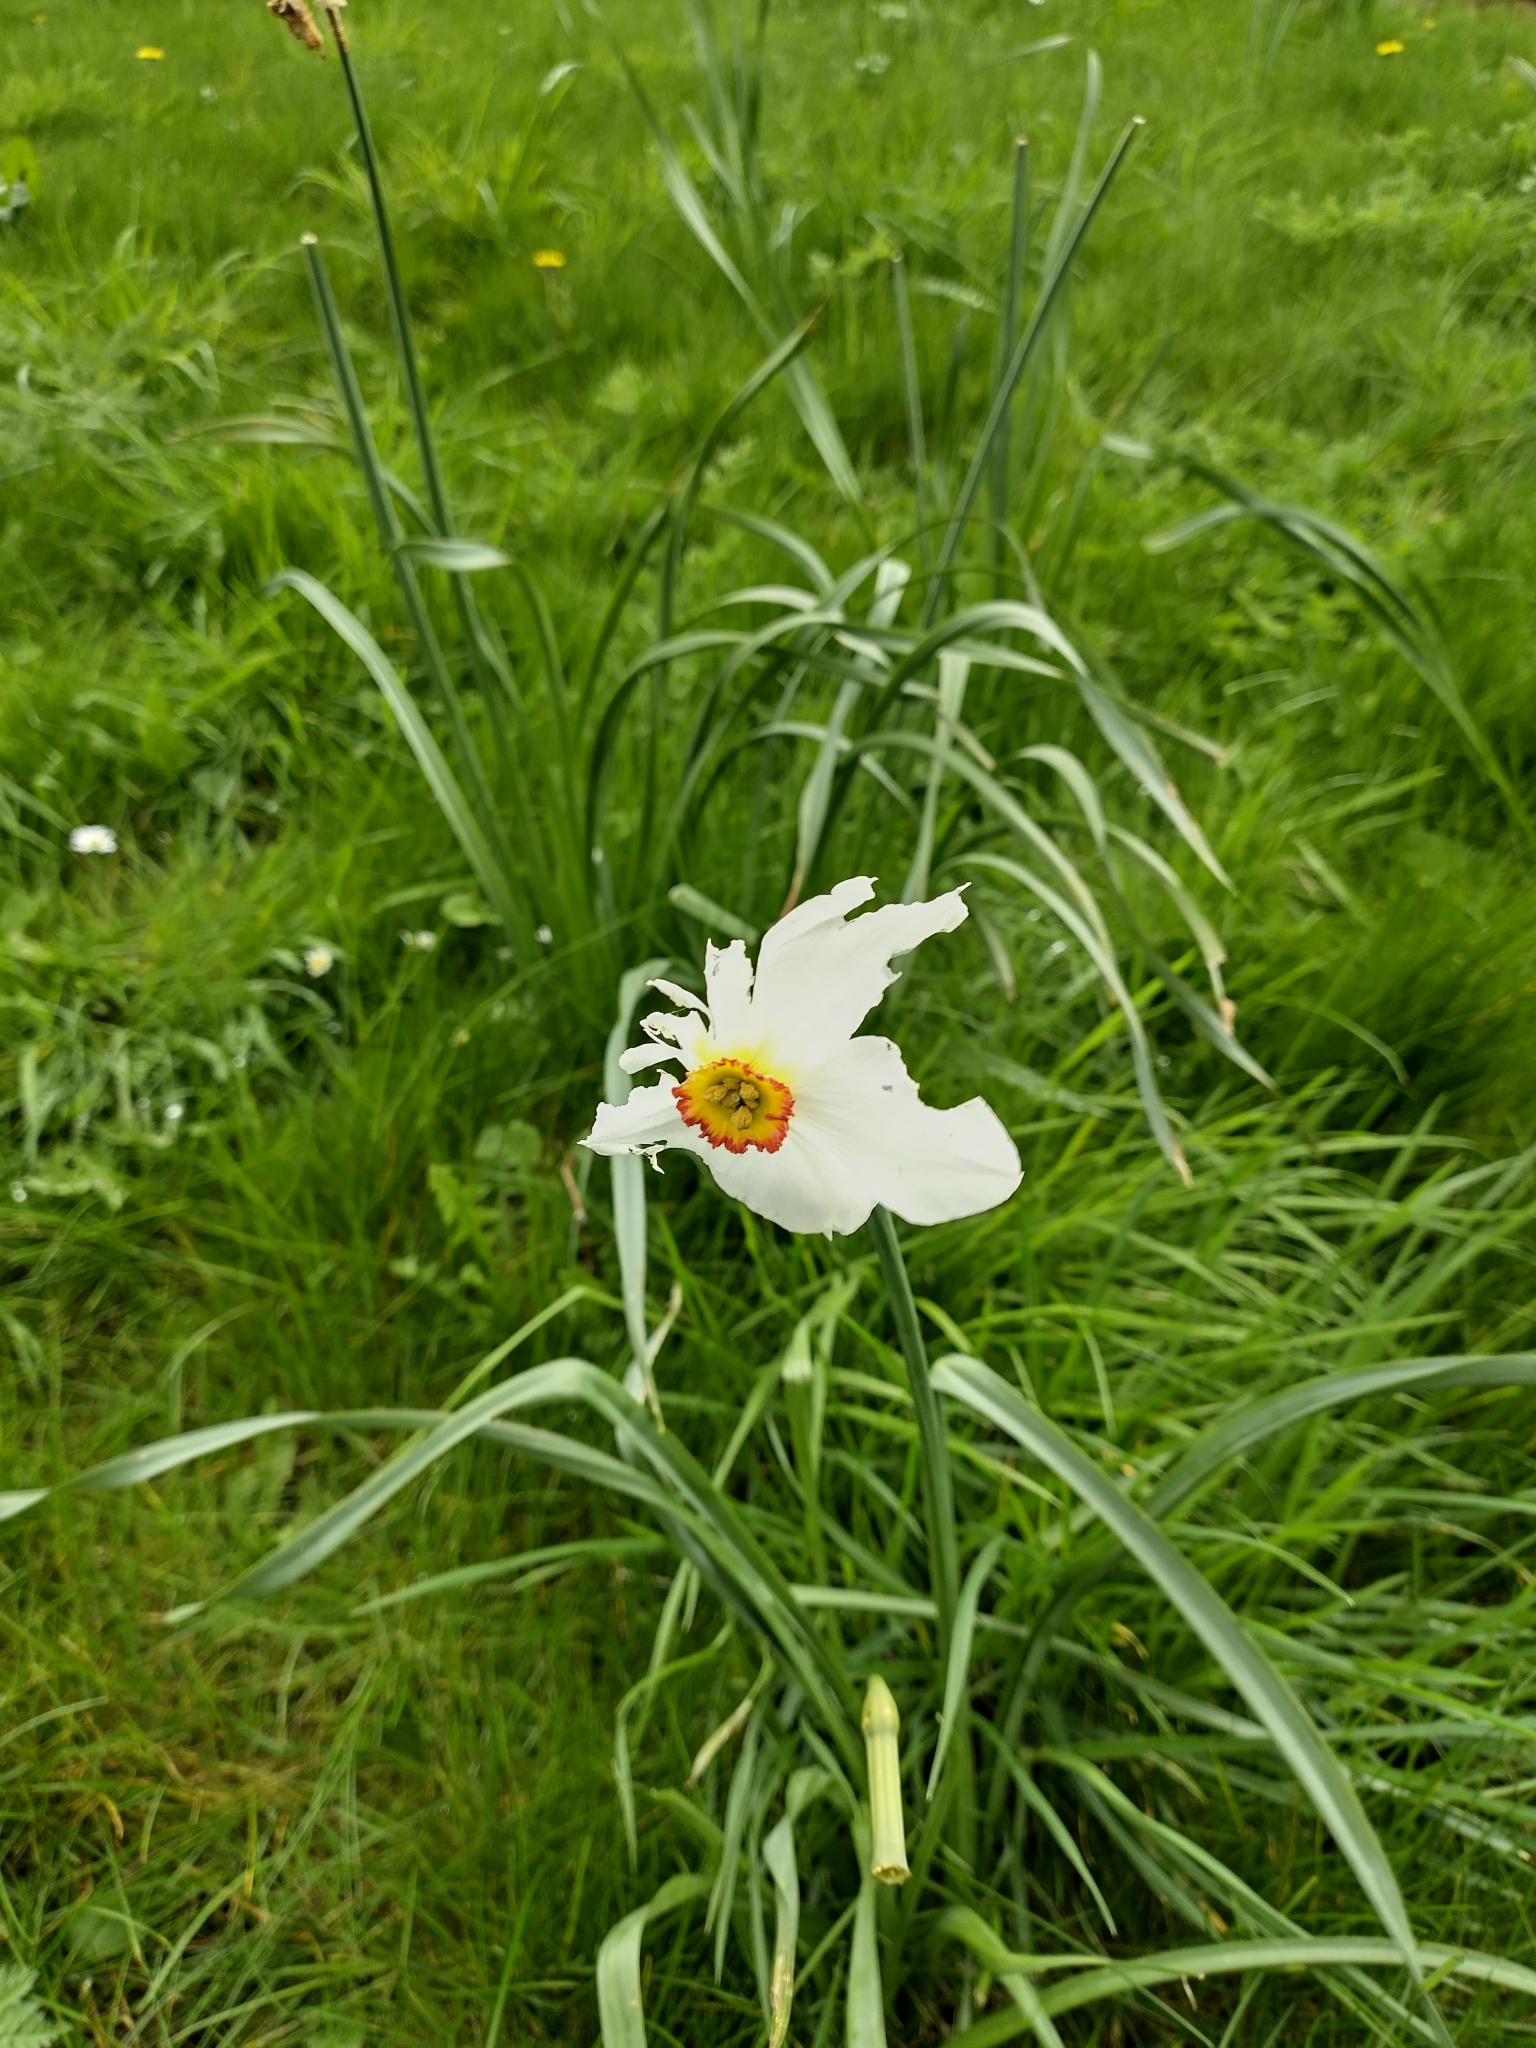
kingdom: Plantae
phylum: Tracheophyta
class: Liliopsida
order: Asparagales
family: Amaryllidaceae
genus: Narcissus
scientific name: Narcissus poeticus
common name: Pheasant's-eye daffodil
